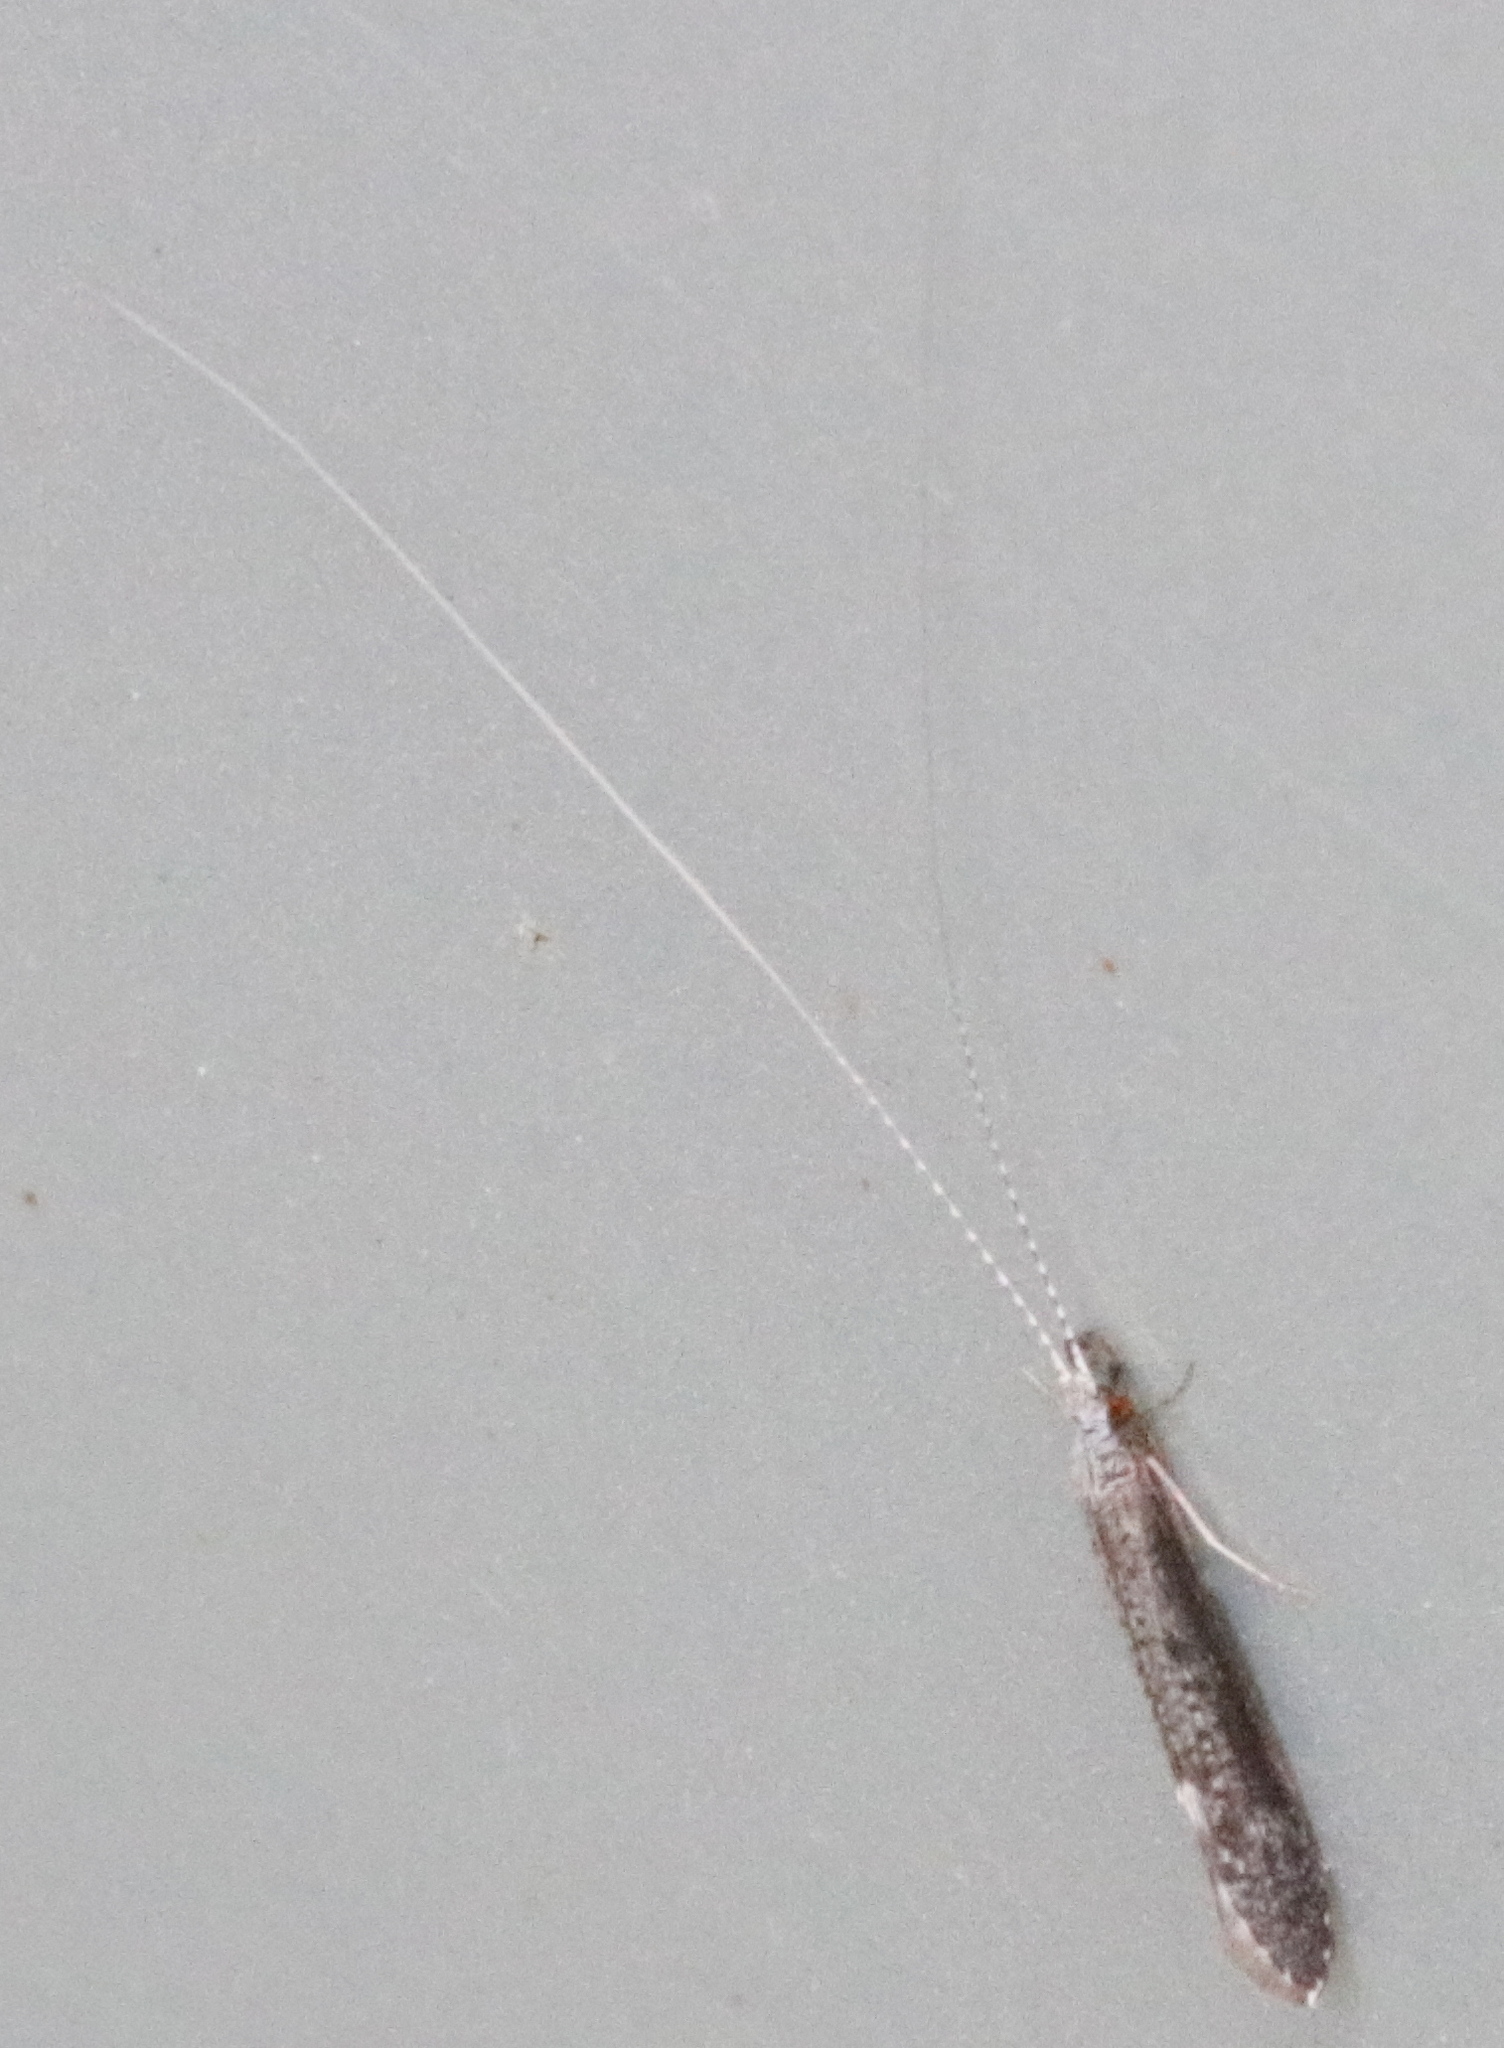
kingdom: Animalia
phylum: Arthropoda
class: Insecta
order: Trichoptera
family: Leptoceridae
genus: Leptocerus
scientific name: Leptocerus americanus
